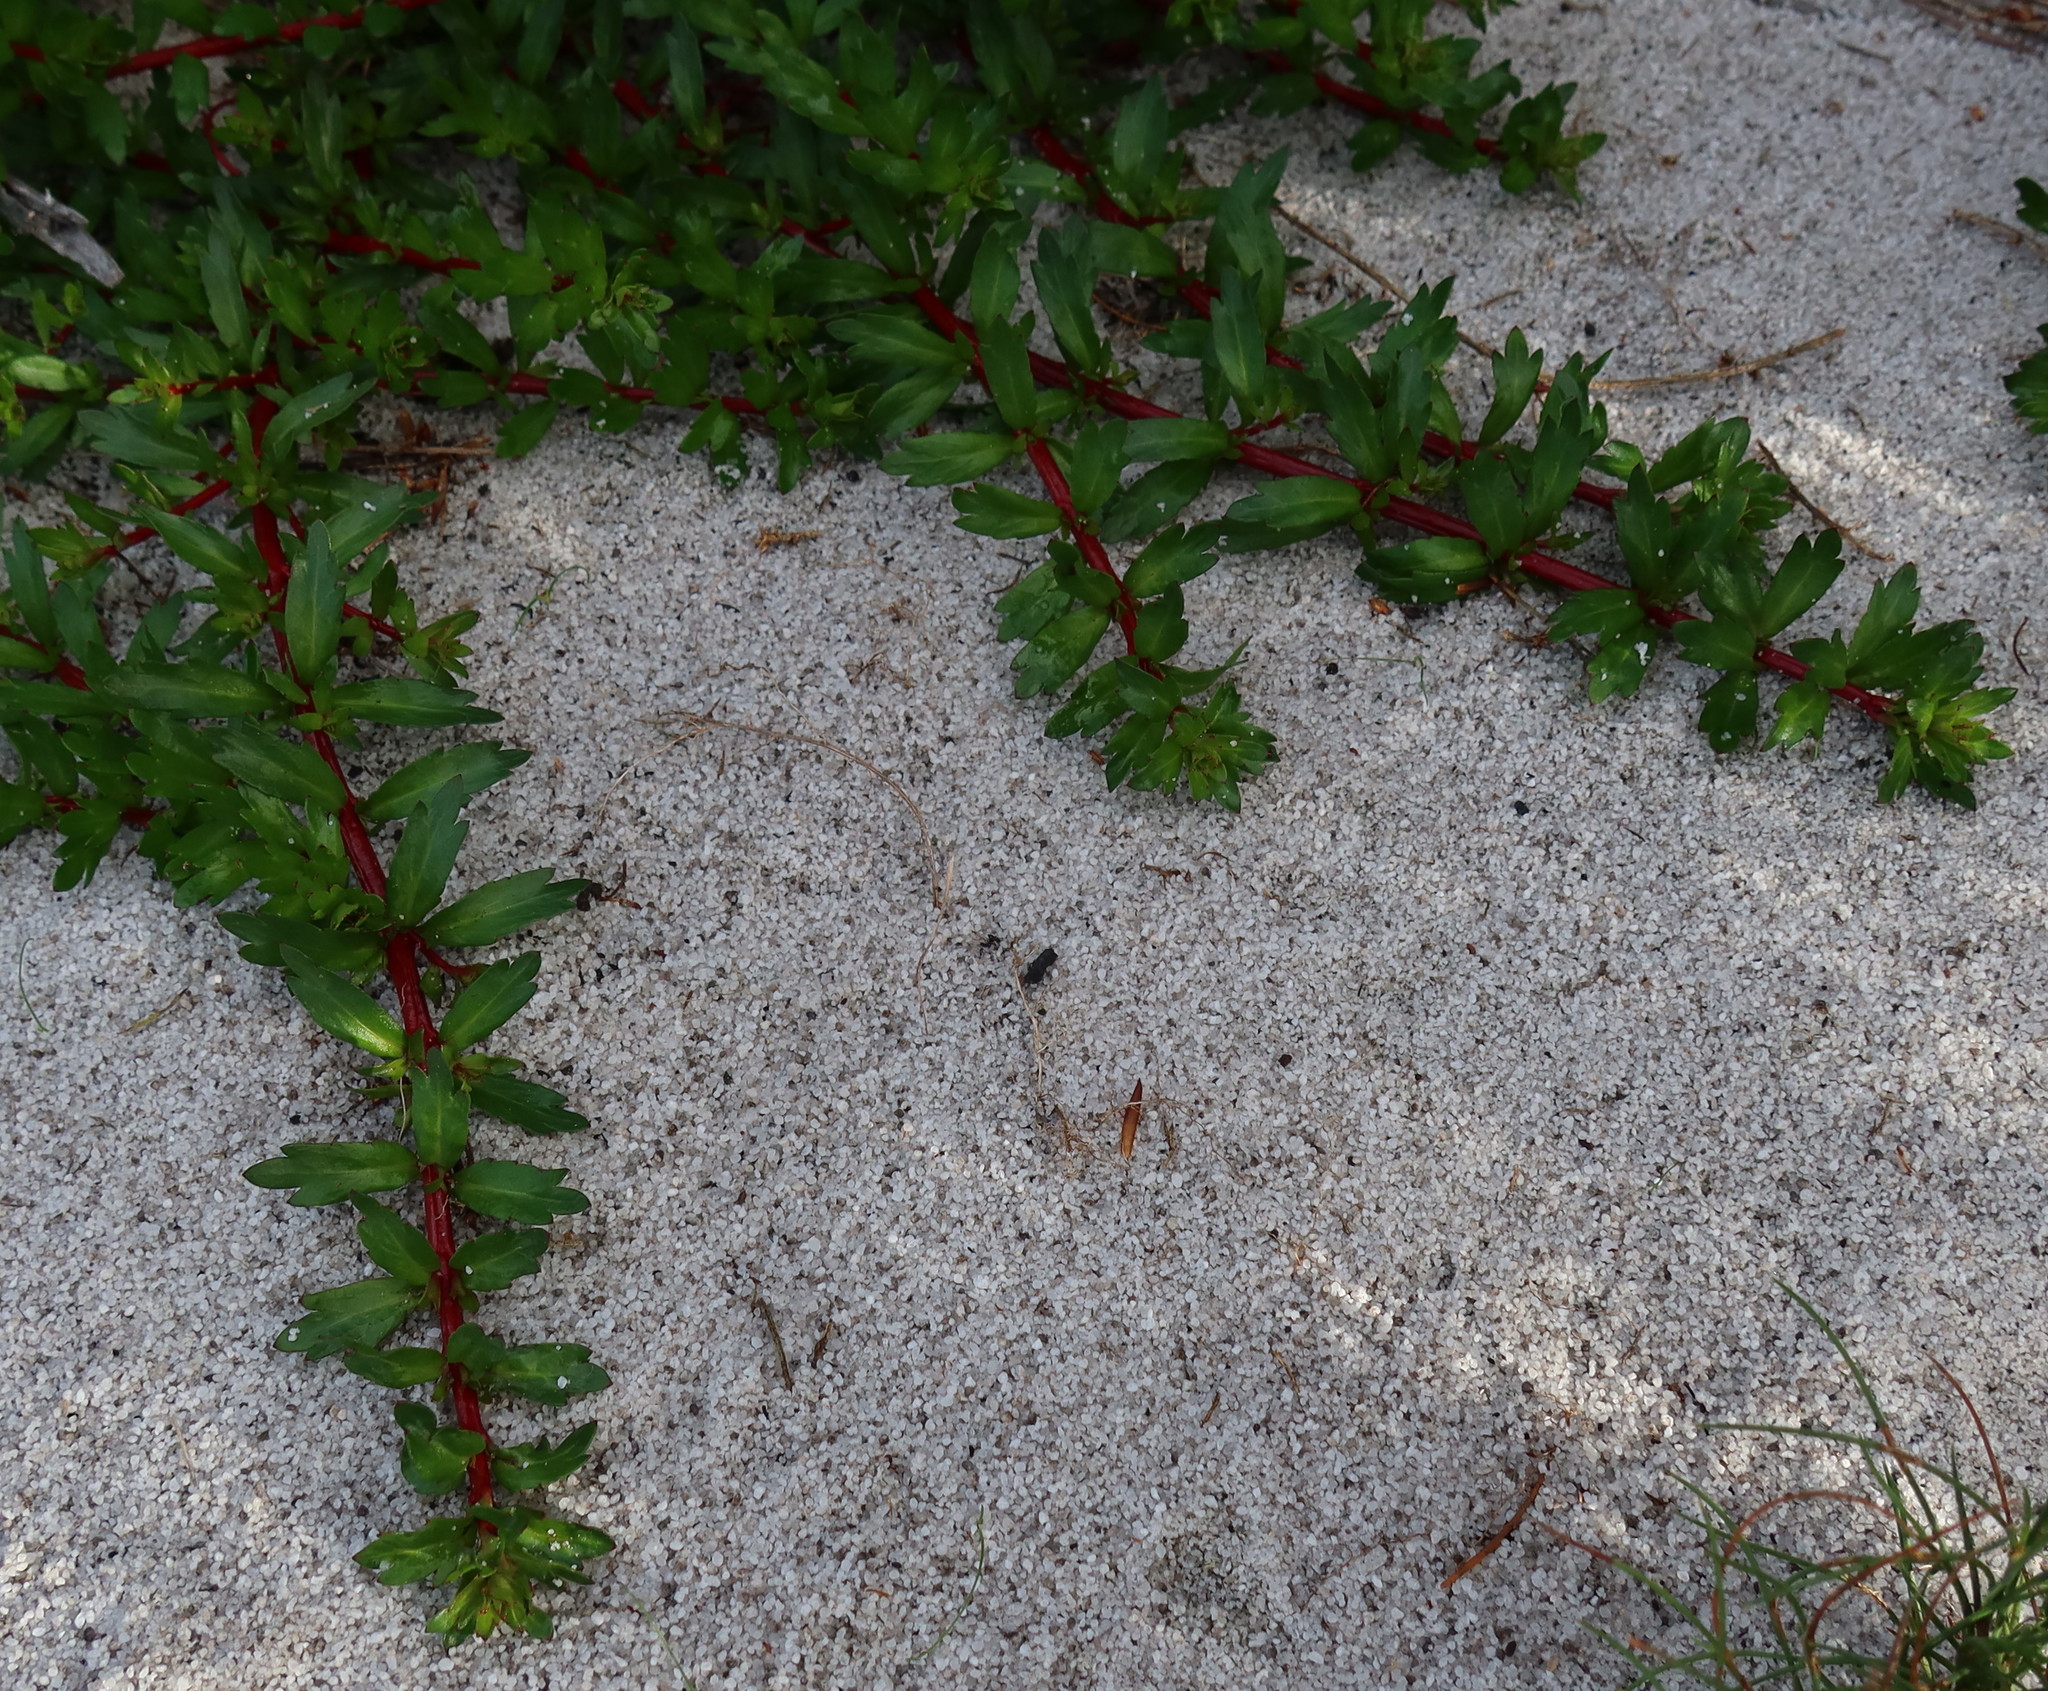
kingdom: Plantae
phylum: Tracheophyta
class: Magnoliopsida
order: Saxifragales
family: Haloragaceae
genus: Laurembergia
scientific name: Laurembergia repens
